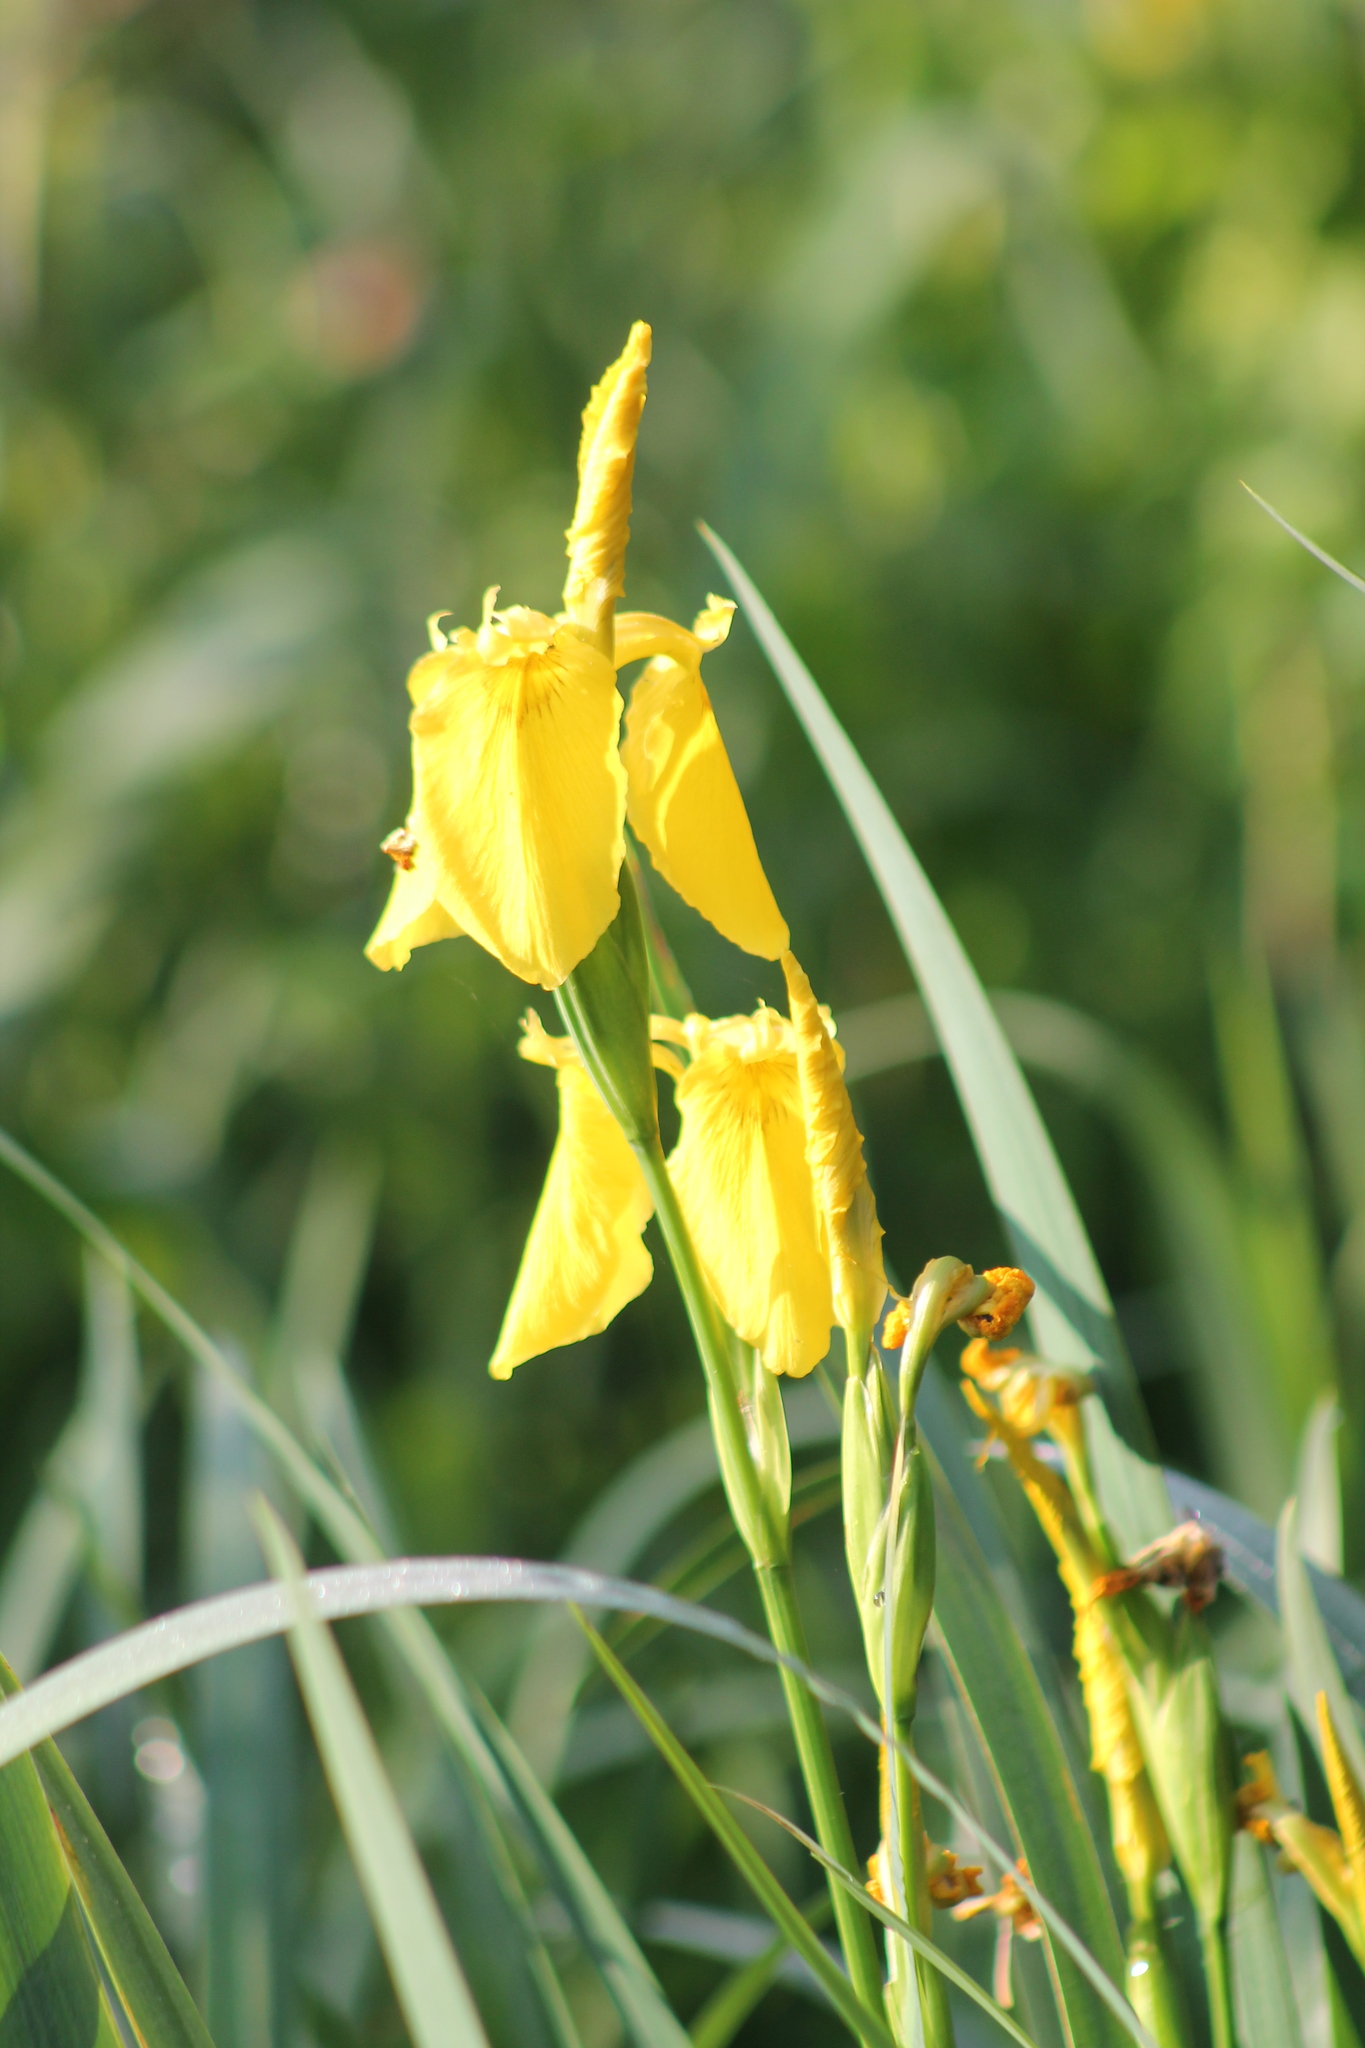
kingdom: Plantae
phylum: Tracheophyta
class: Liliopsida
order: Asparagales
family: Iridaceae
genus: Iris
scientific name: Iris pseudacorus
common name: Yellow flag
